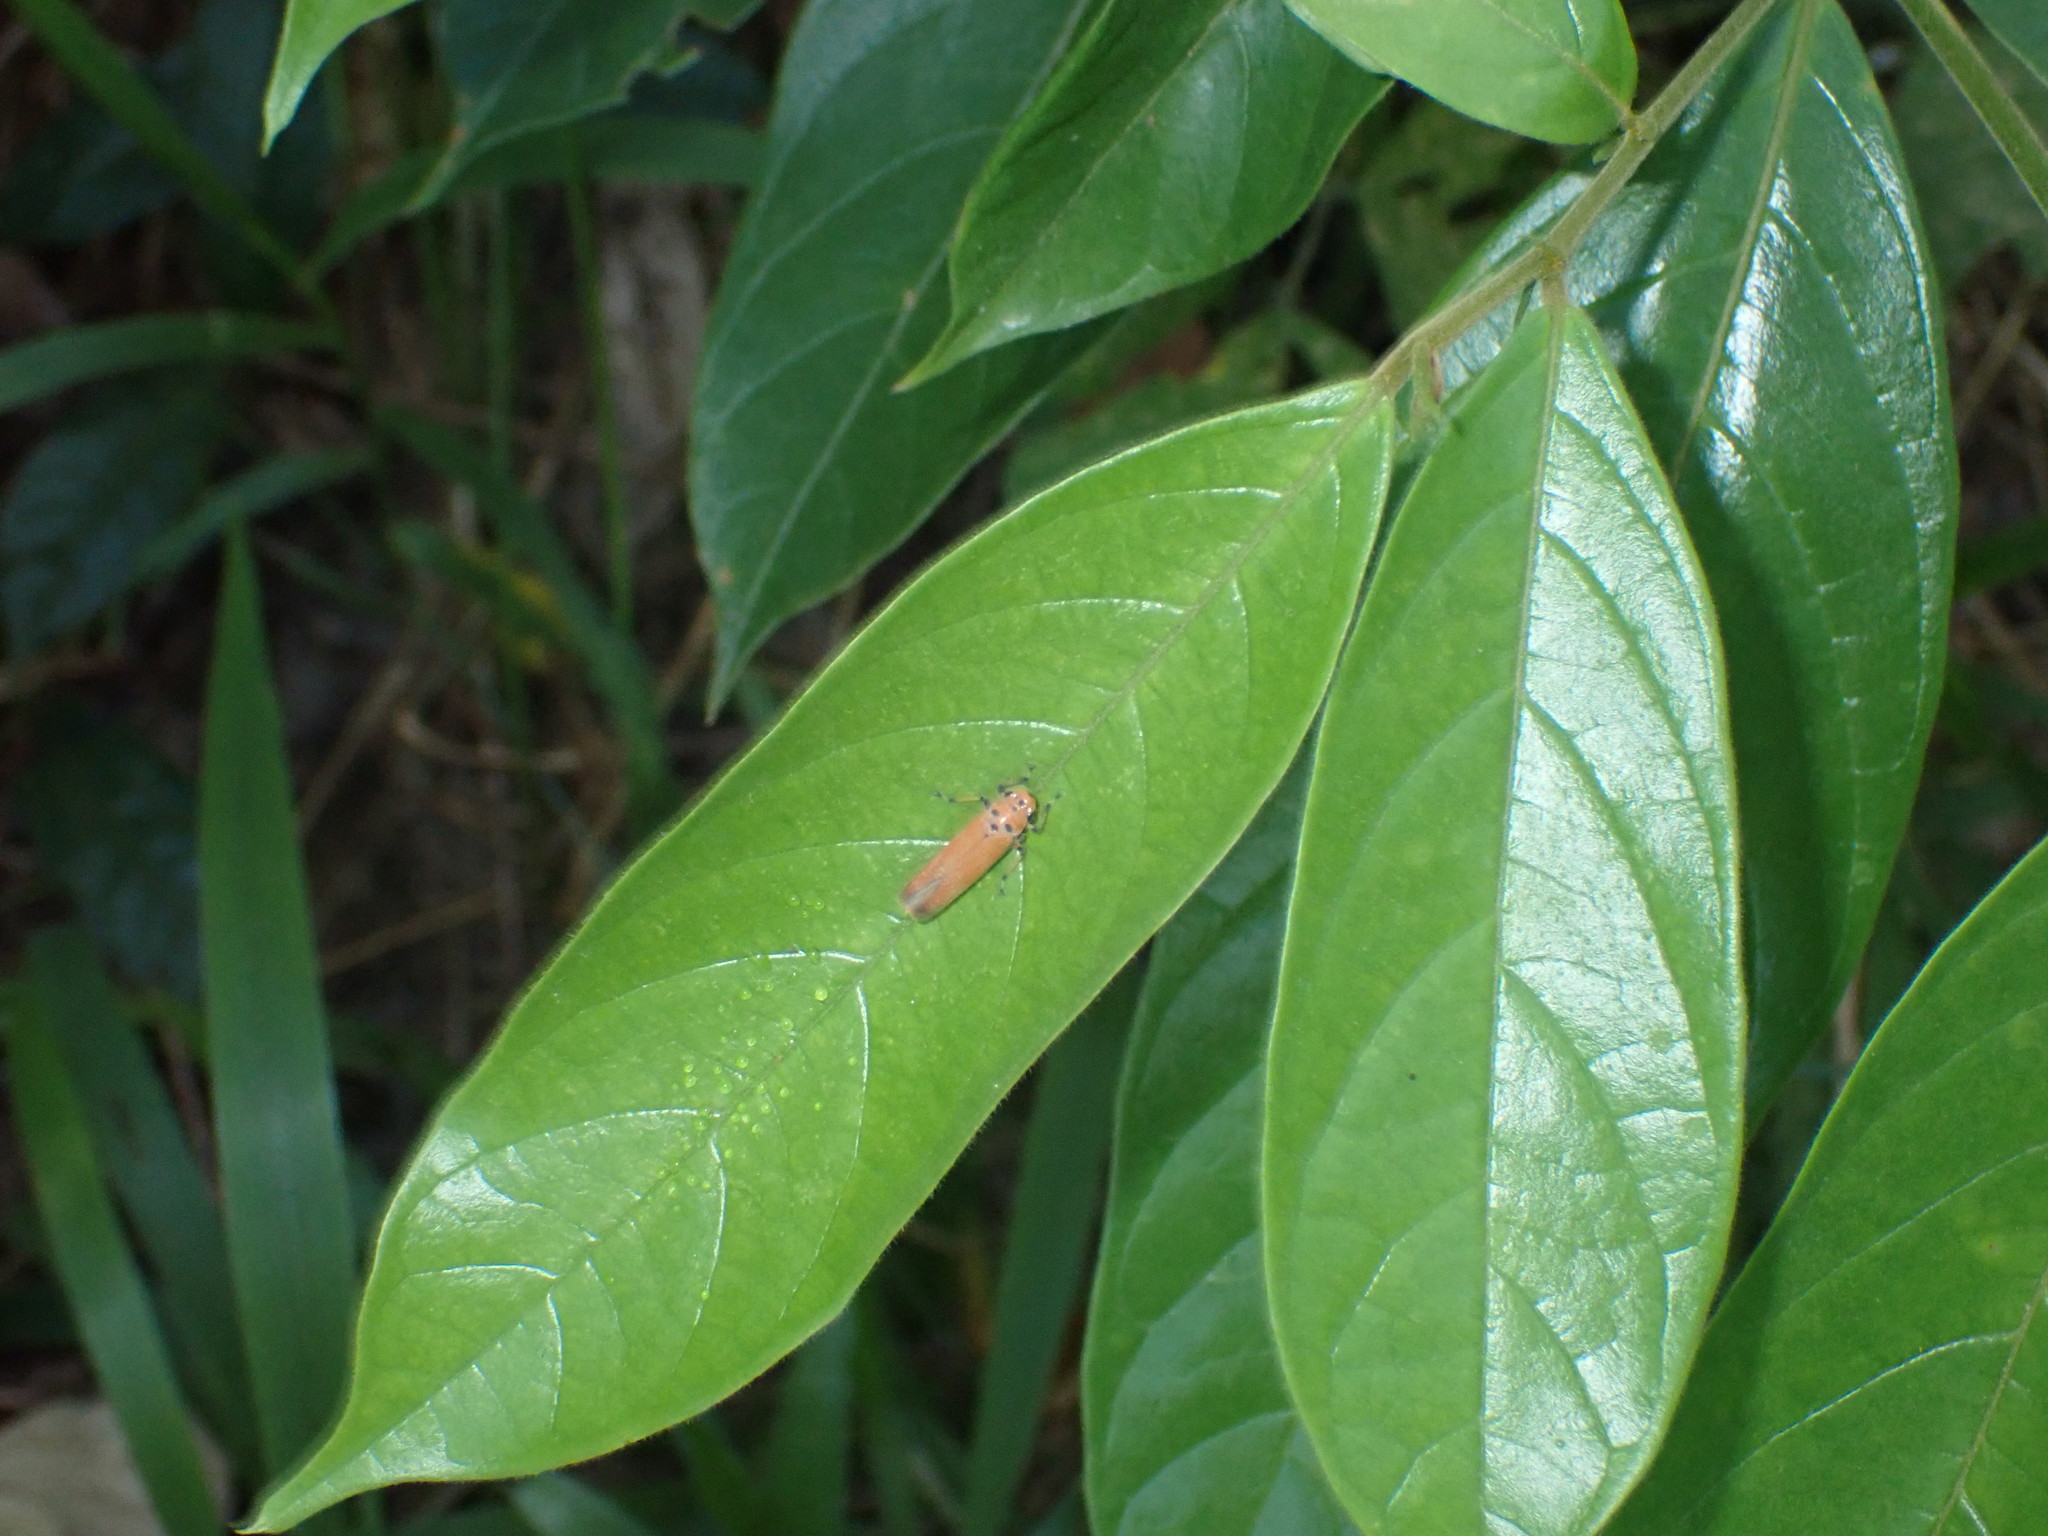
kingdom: Animalia
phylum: Arthropoda
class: Insecta
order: Hemiptera
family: Cicadellidae
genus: Bothrogonia
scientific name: Bothrogonia addita
